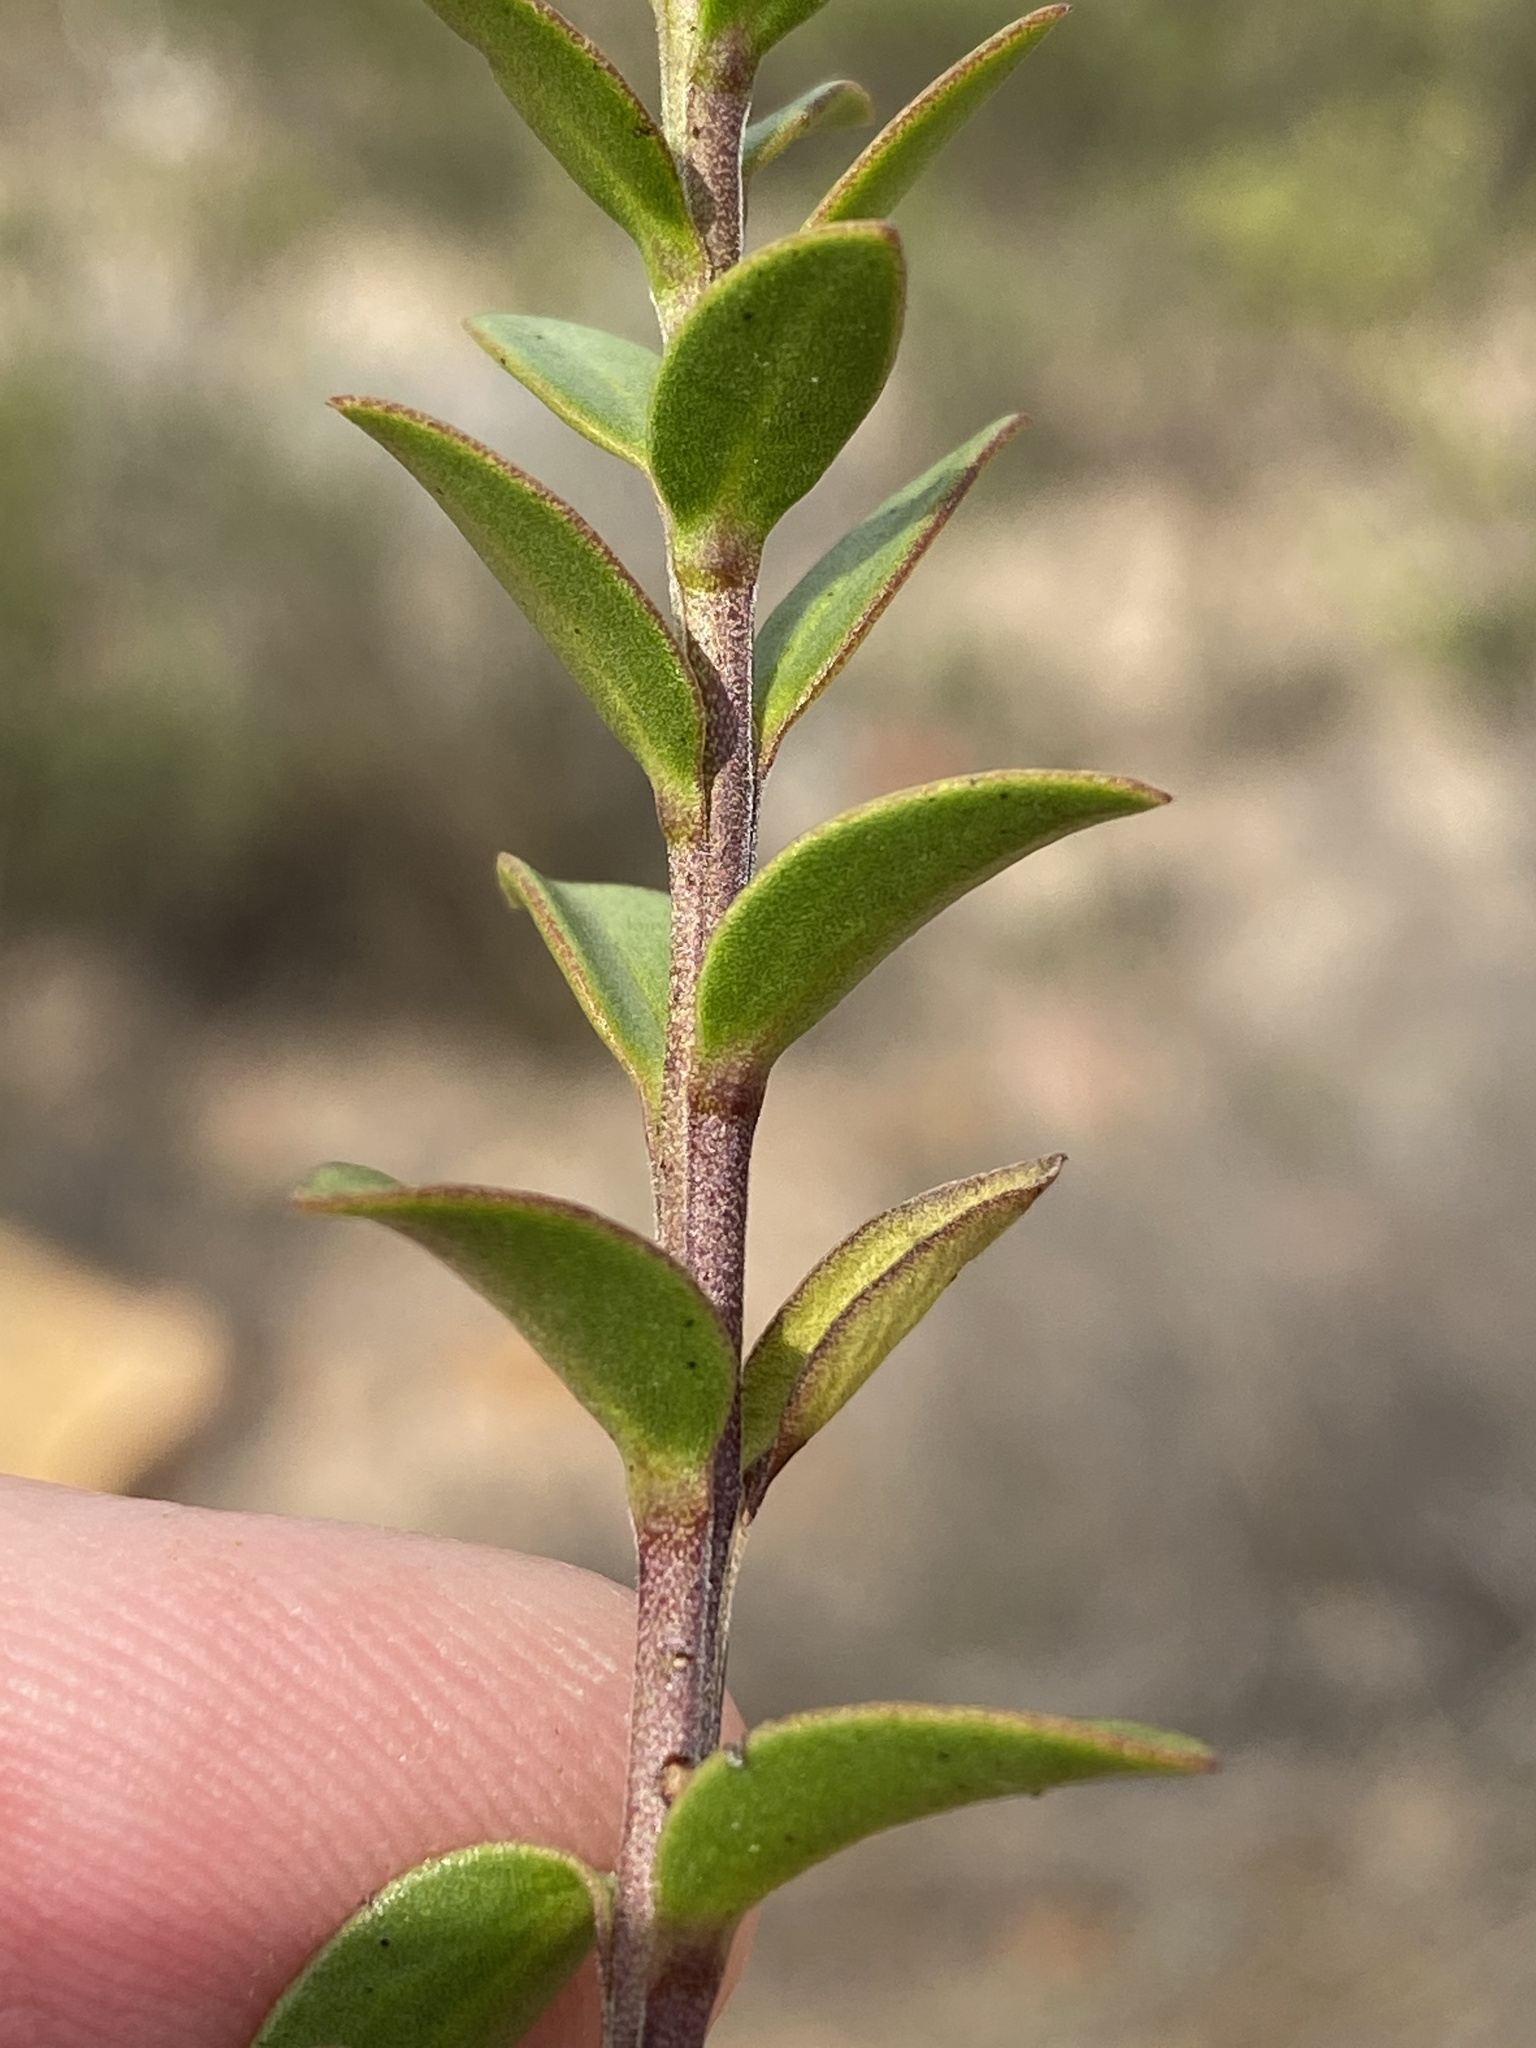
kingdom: Plantae
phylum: Tracheophyta
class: Magnoliopsida
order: Lamiales
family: Scrophulariaceae
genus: Selago
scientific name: Selago myrtifolia
